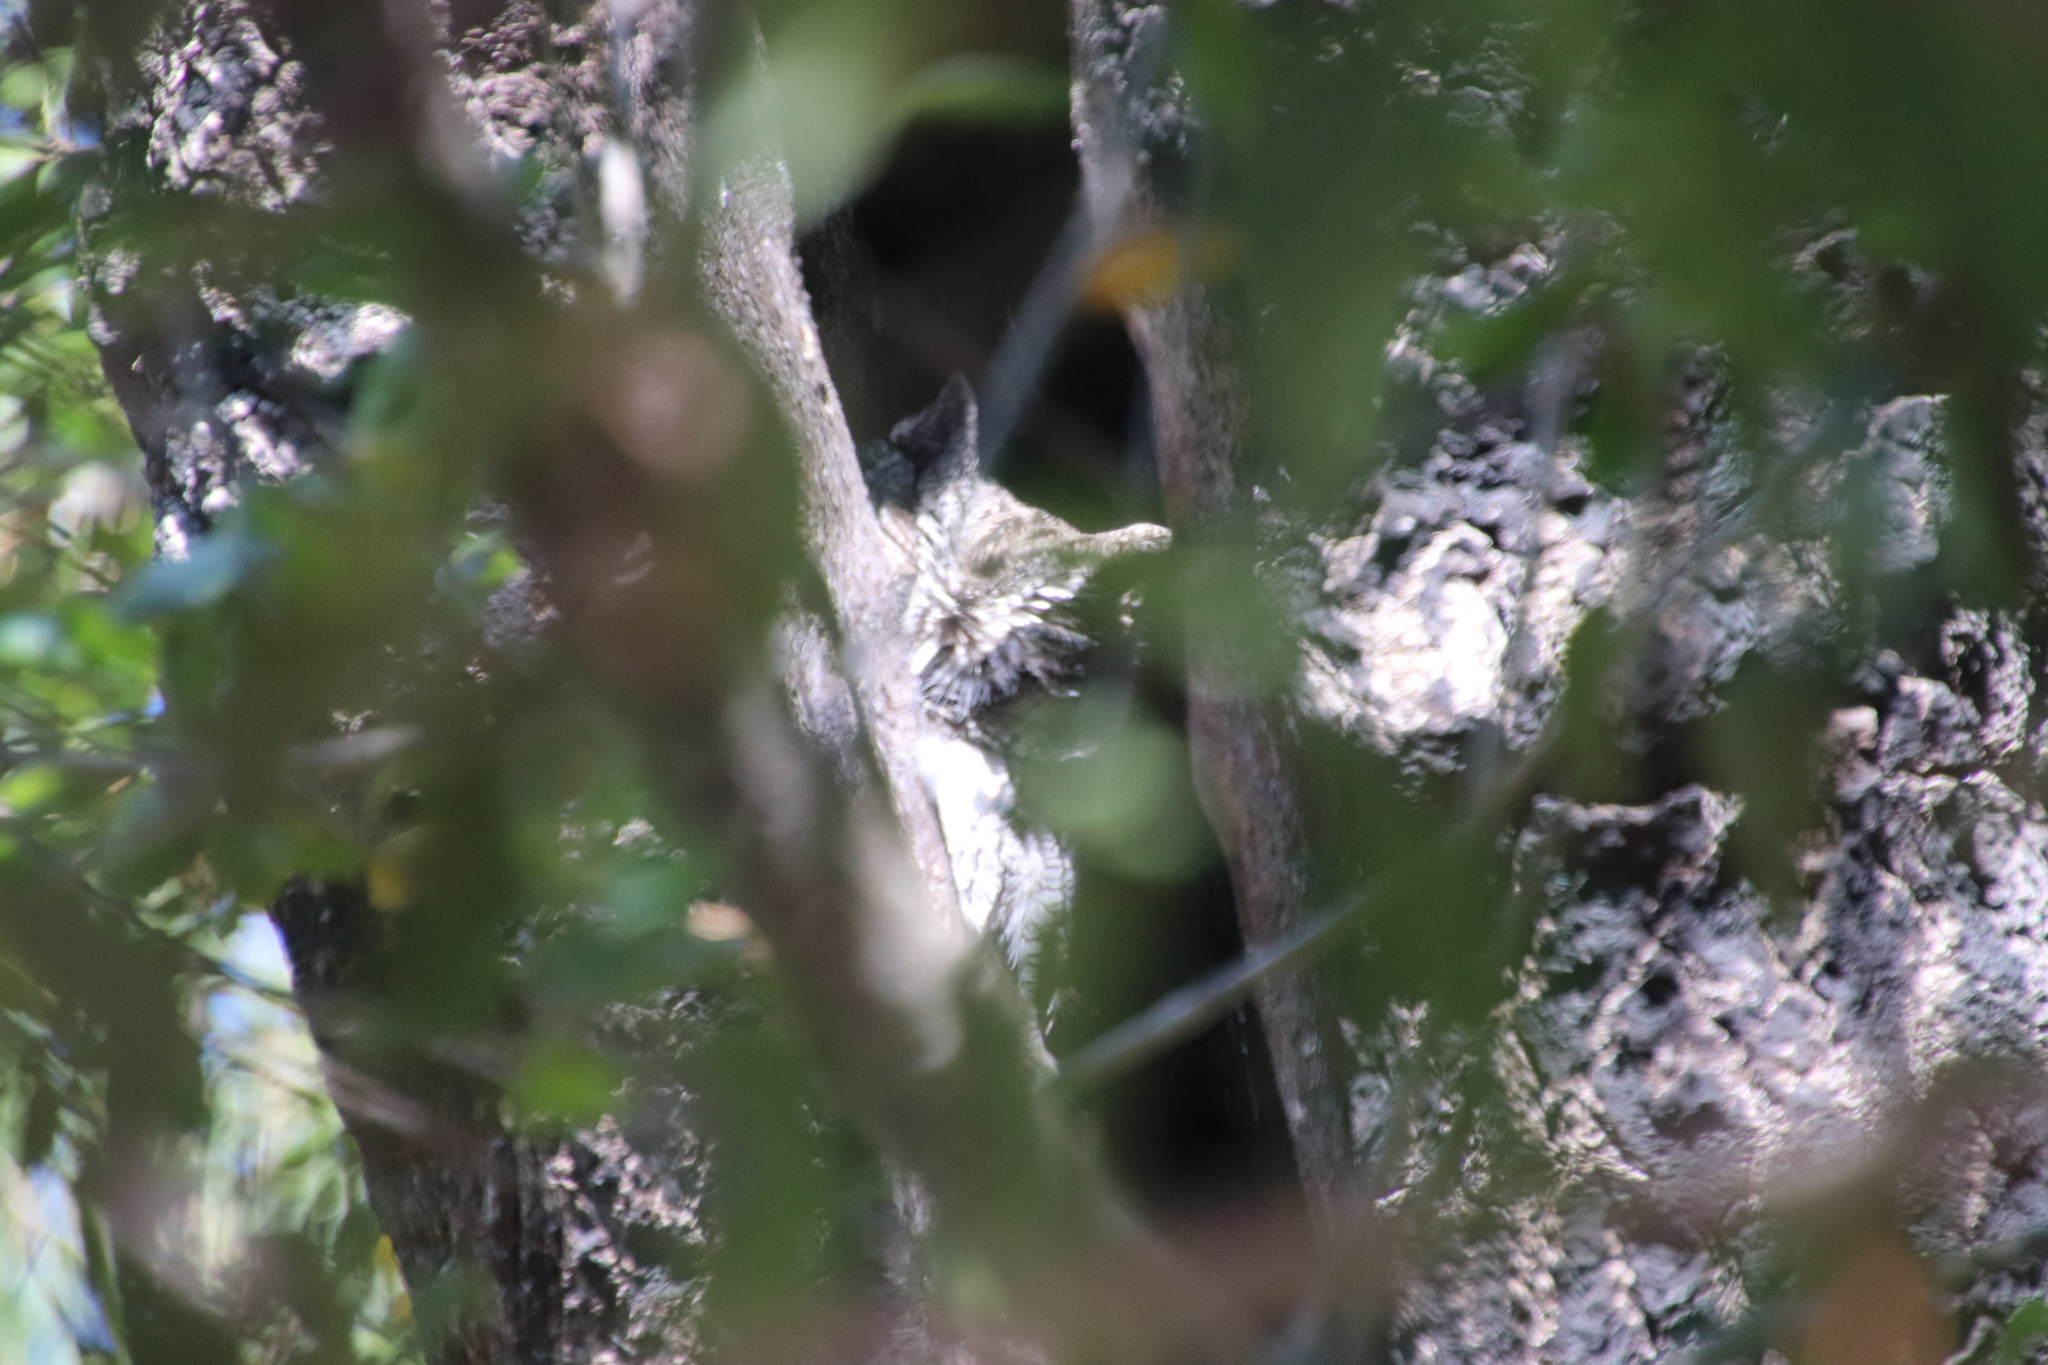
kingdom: Animalia
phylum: Chordata
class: Aves
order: Strigiformes
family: Strigidae
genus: Megascops
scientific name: Megascops kennicottii
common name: Western screech-owl
